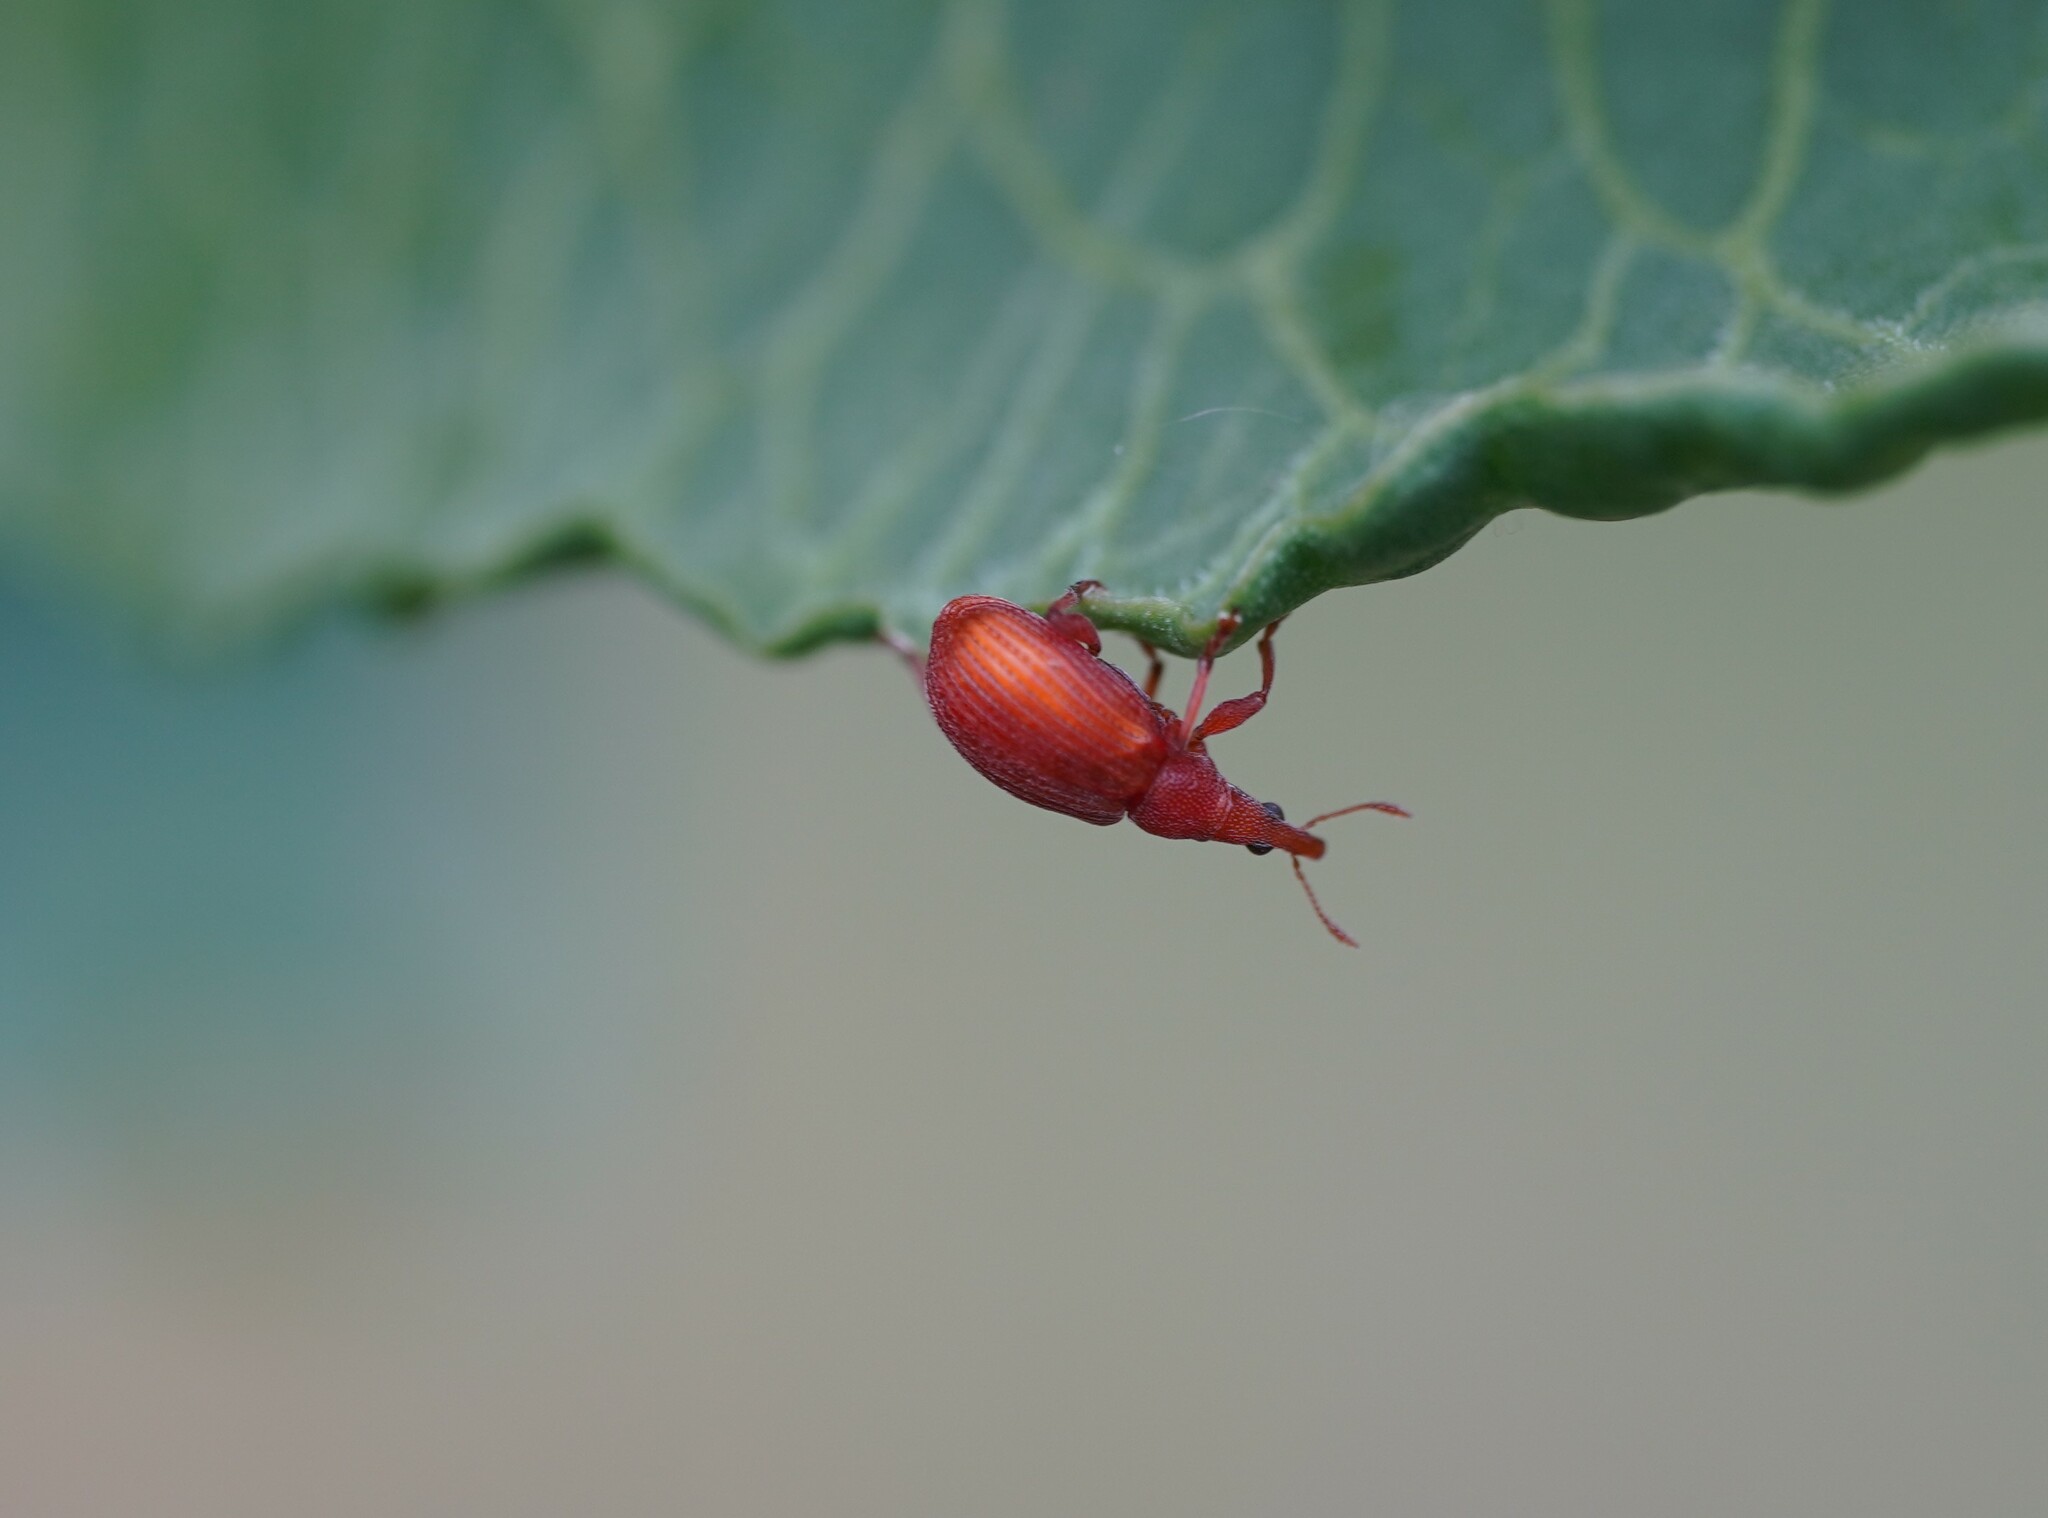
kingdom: Animalia
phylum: Arthropoda
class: Insecta
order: Coleoptera
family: Apionidae
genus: Apion
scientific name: Apion frumentarium
